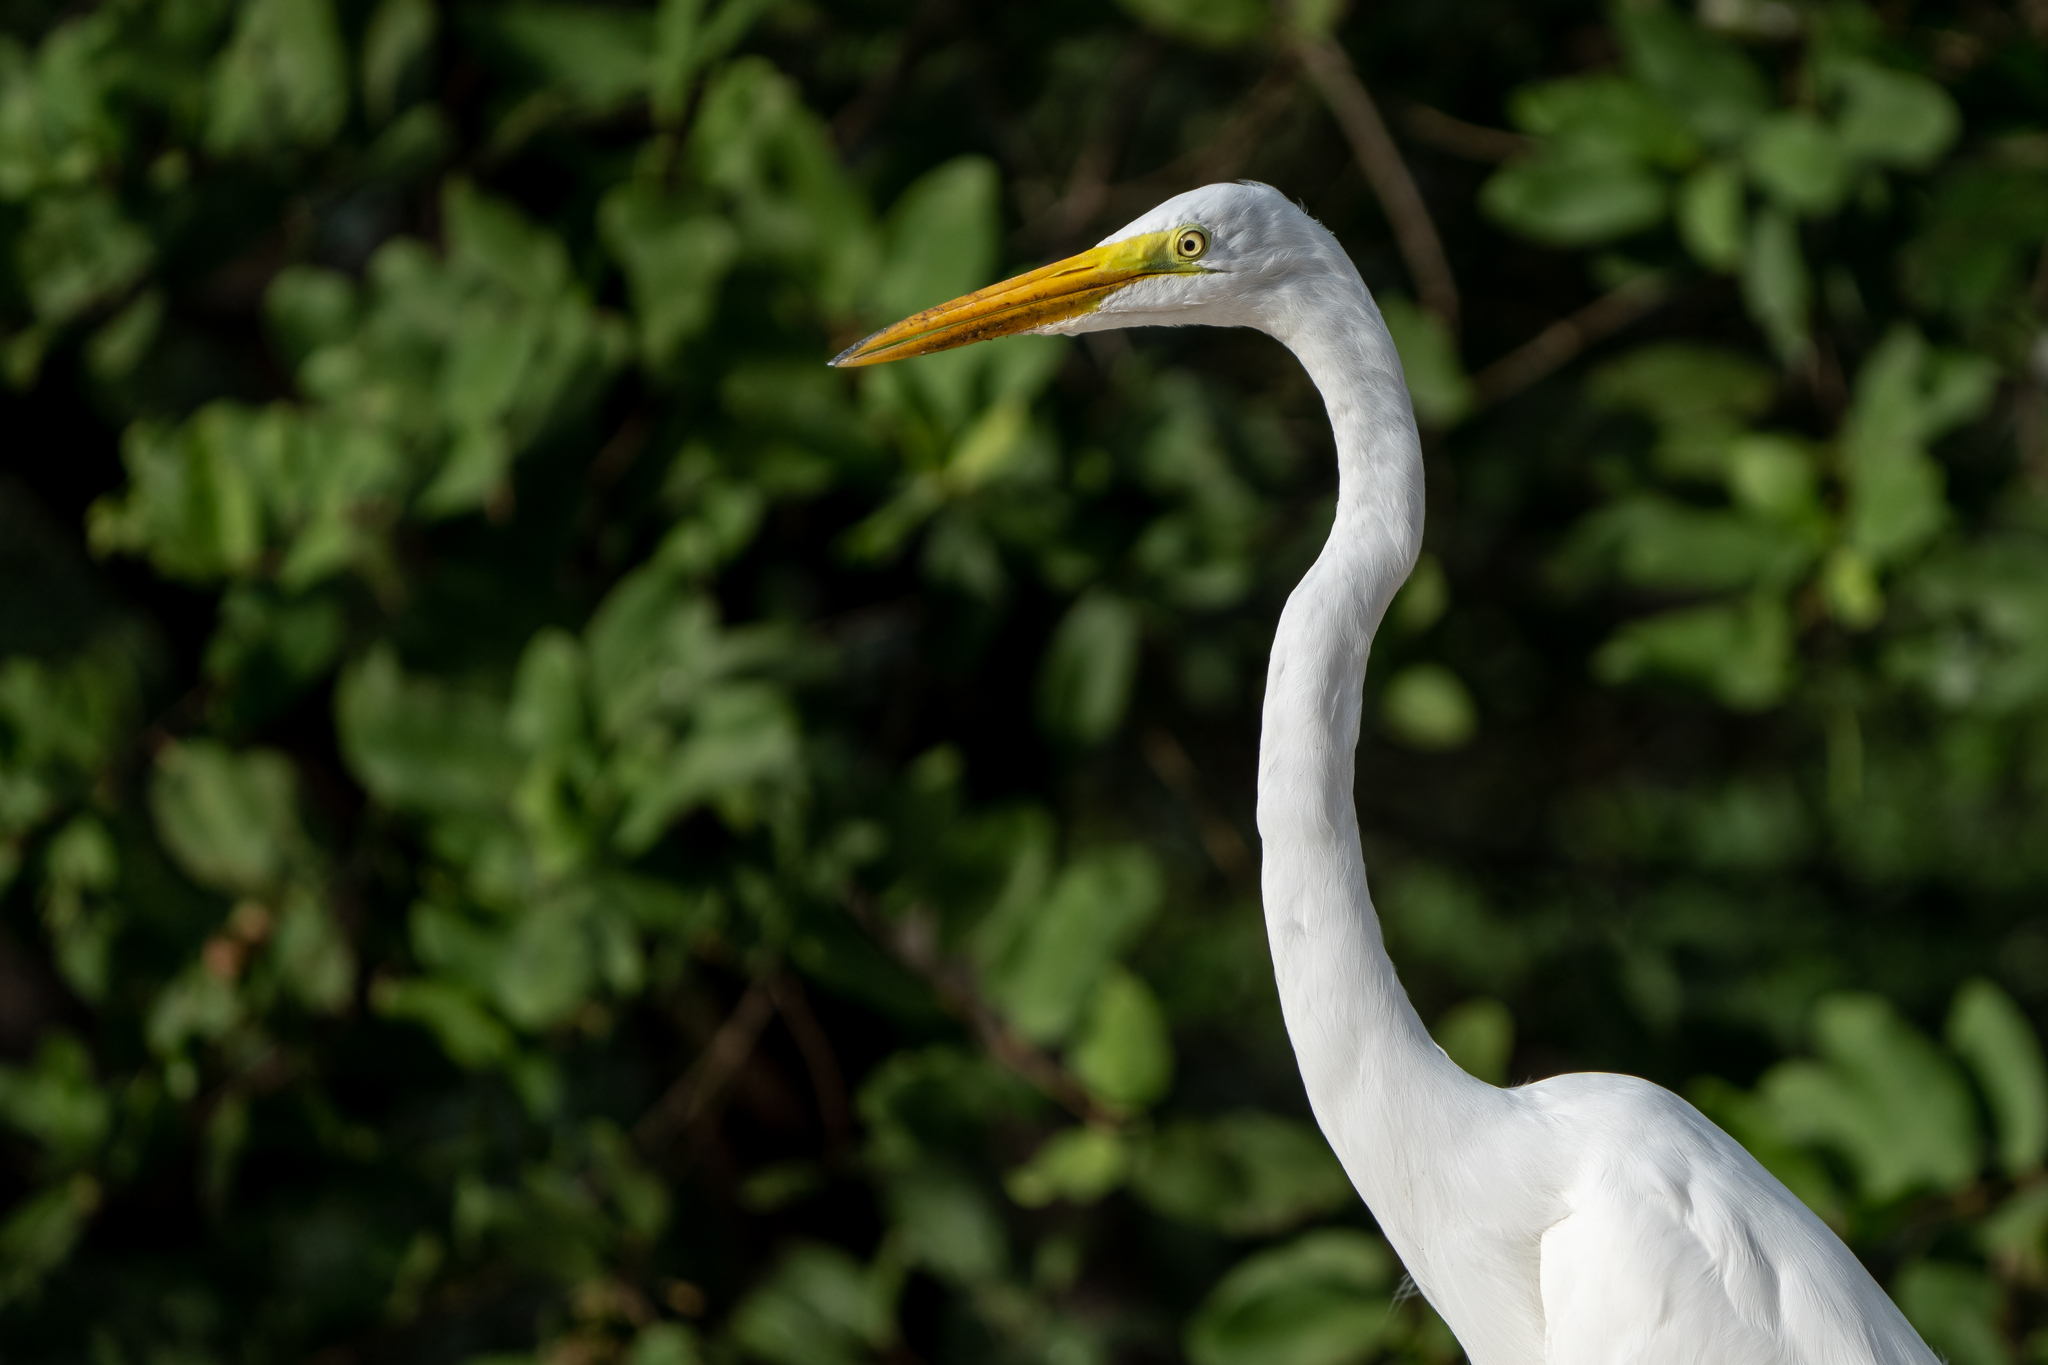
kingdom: Animalia
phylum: Chordata
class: Aves
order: Pelecaniformes
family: Ardeidae
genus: Ardea
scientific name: Ardea alba
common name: Great egret
